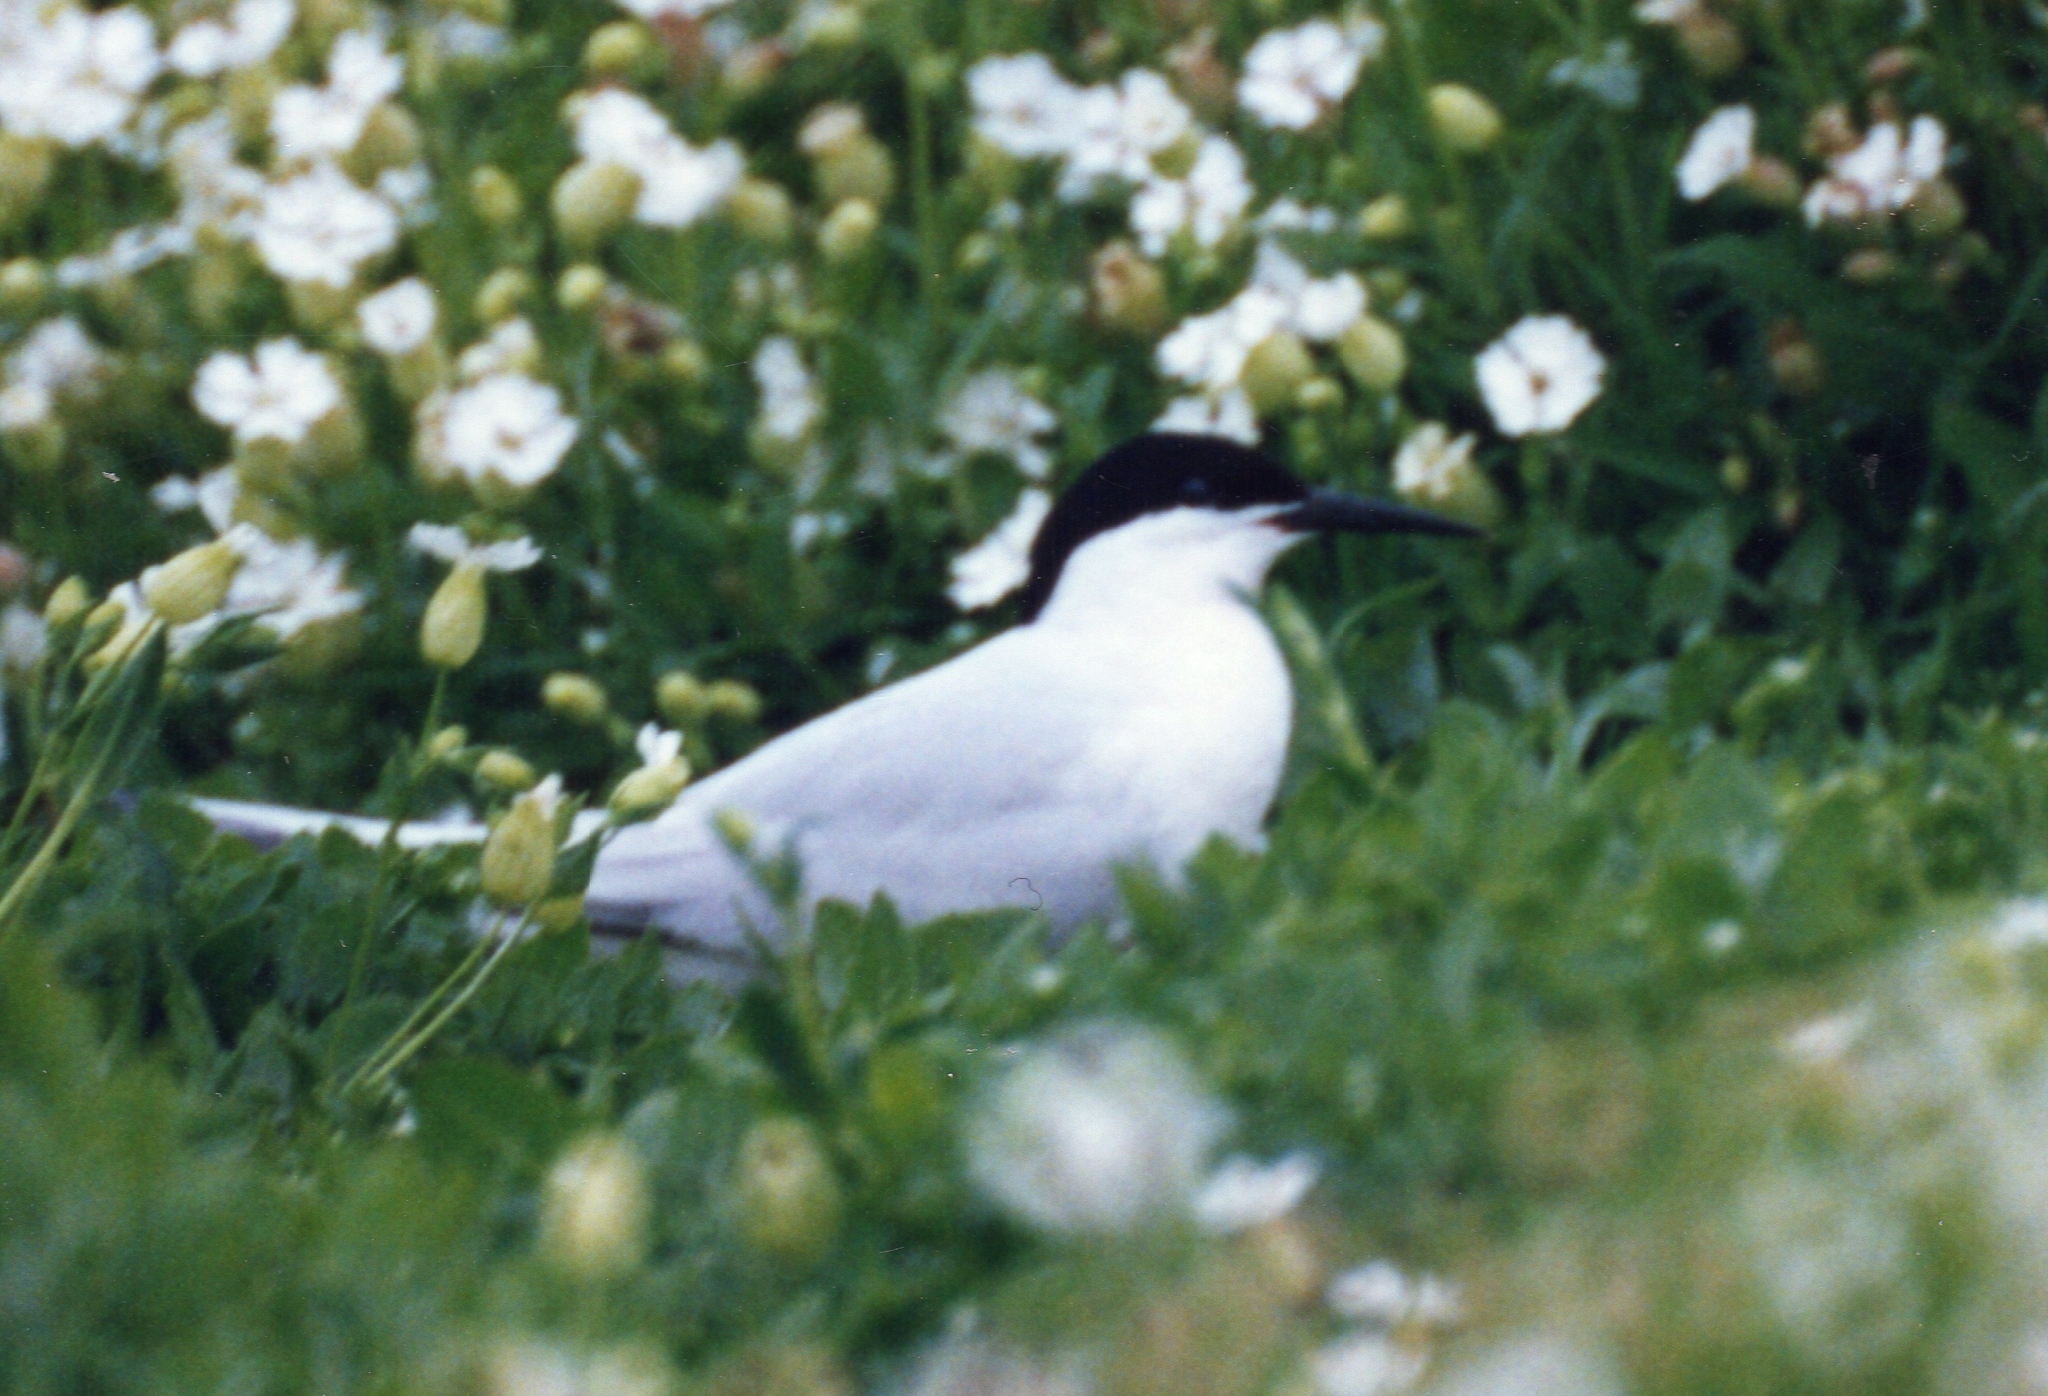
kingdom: Animalia
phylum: Chordata
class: Aves
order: Charadriiformes
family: Laridae
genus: Sterna
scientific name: Sterna dougallii
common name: Roseate tern
